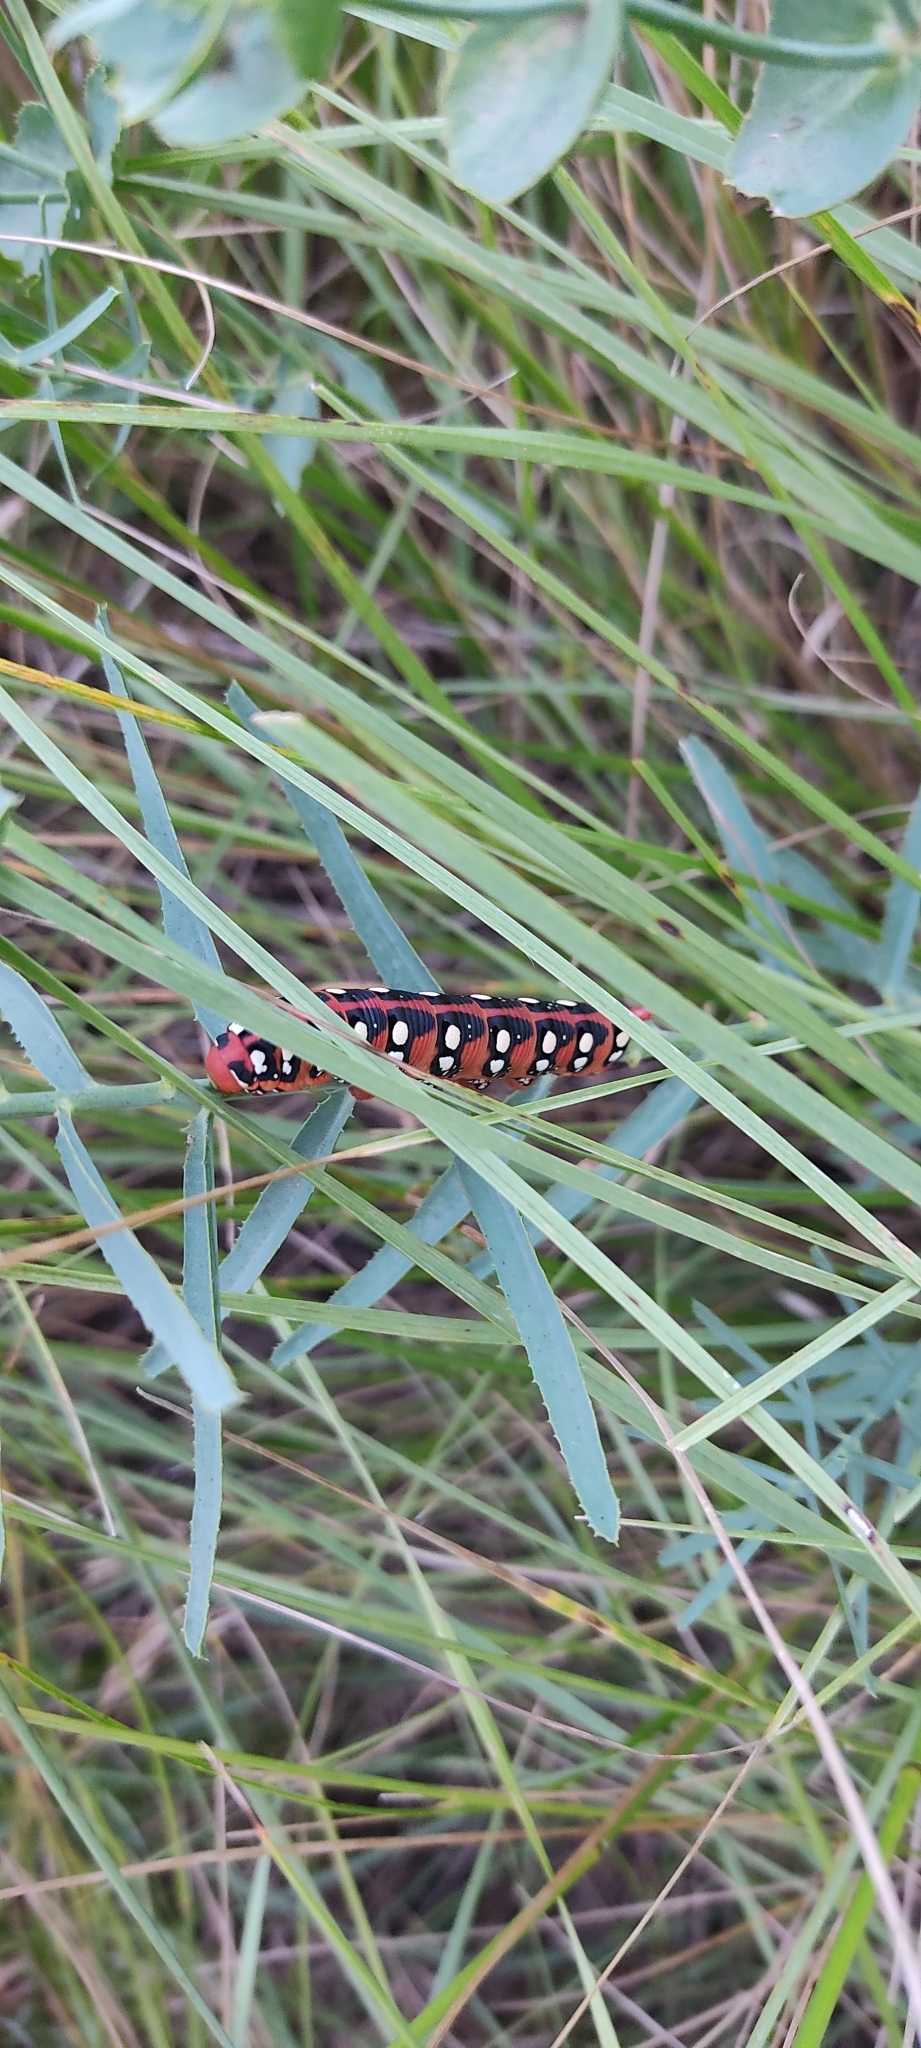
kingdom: Animalia
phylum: Arthropoda
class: Insecta
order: Lepidoptera
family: Sphingidae
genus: Hyles
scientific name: Hyles euphorbiae
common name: Spurge hawk-moth
